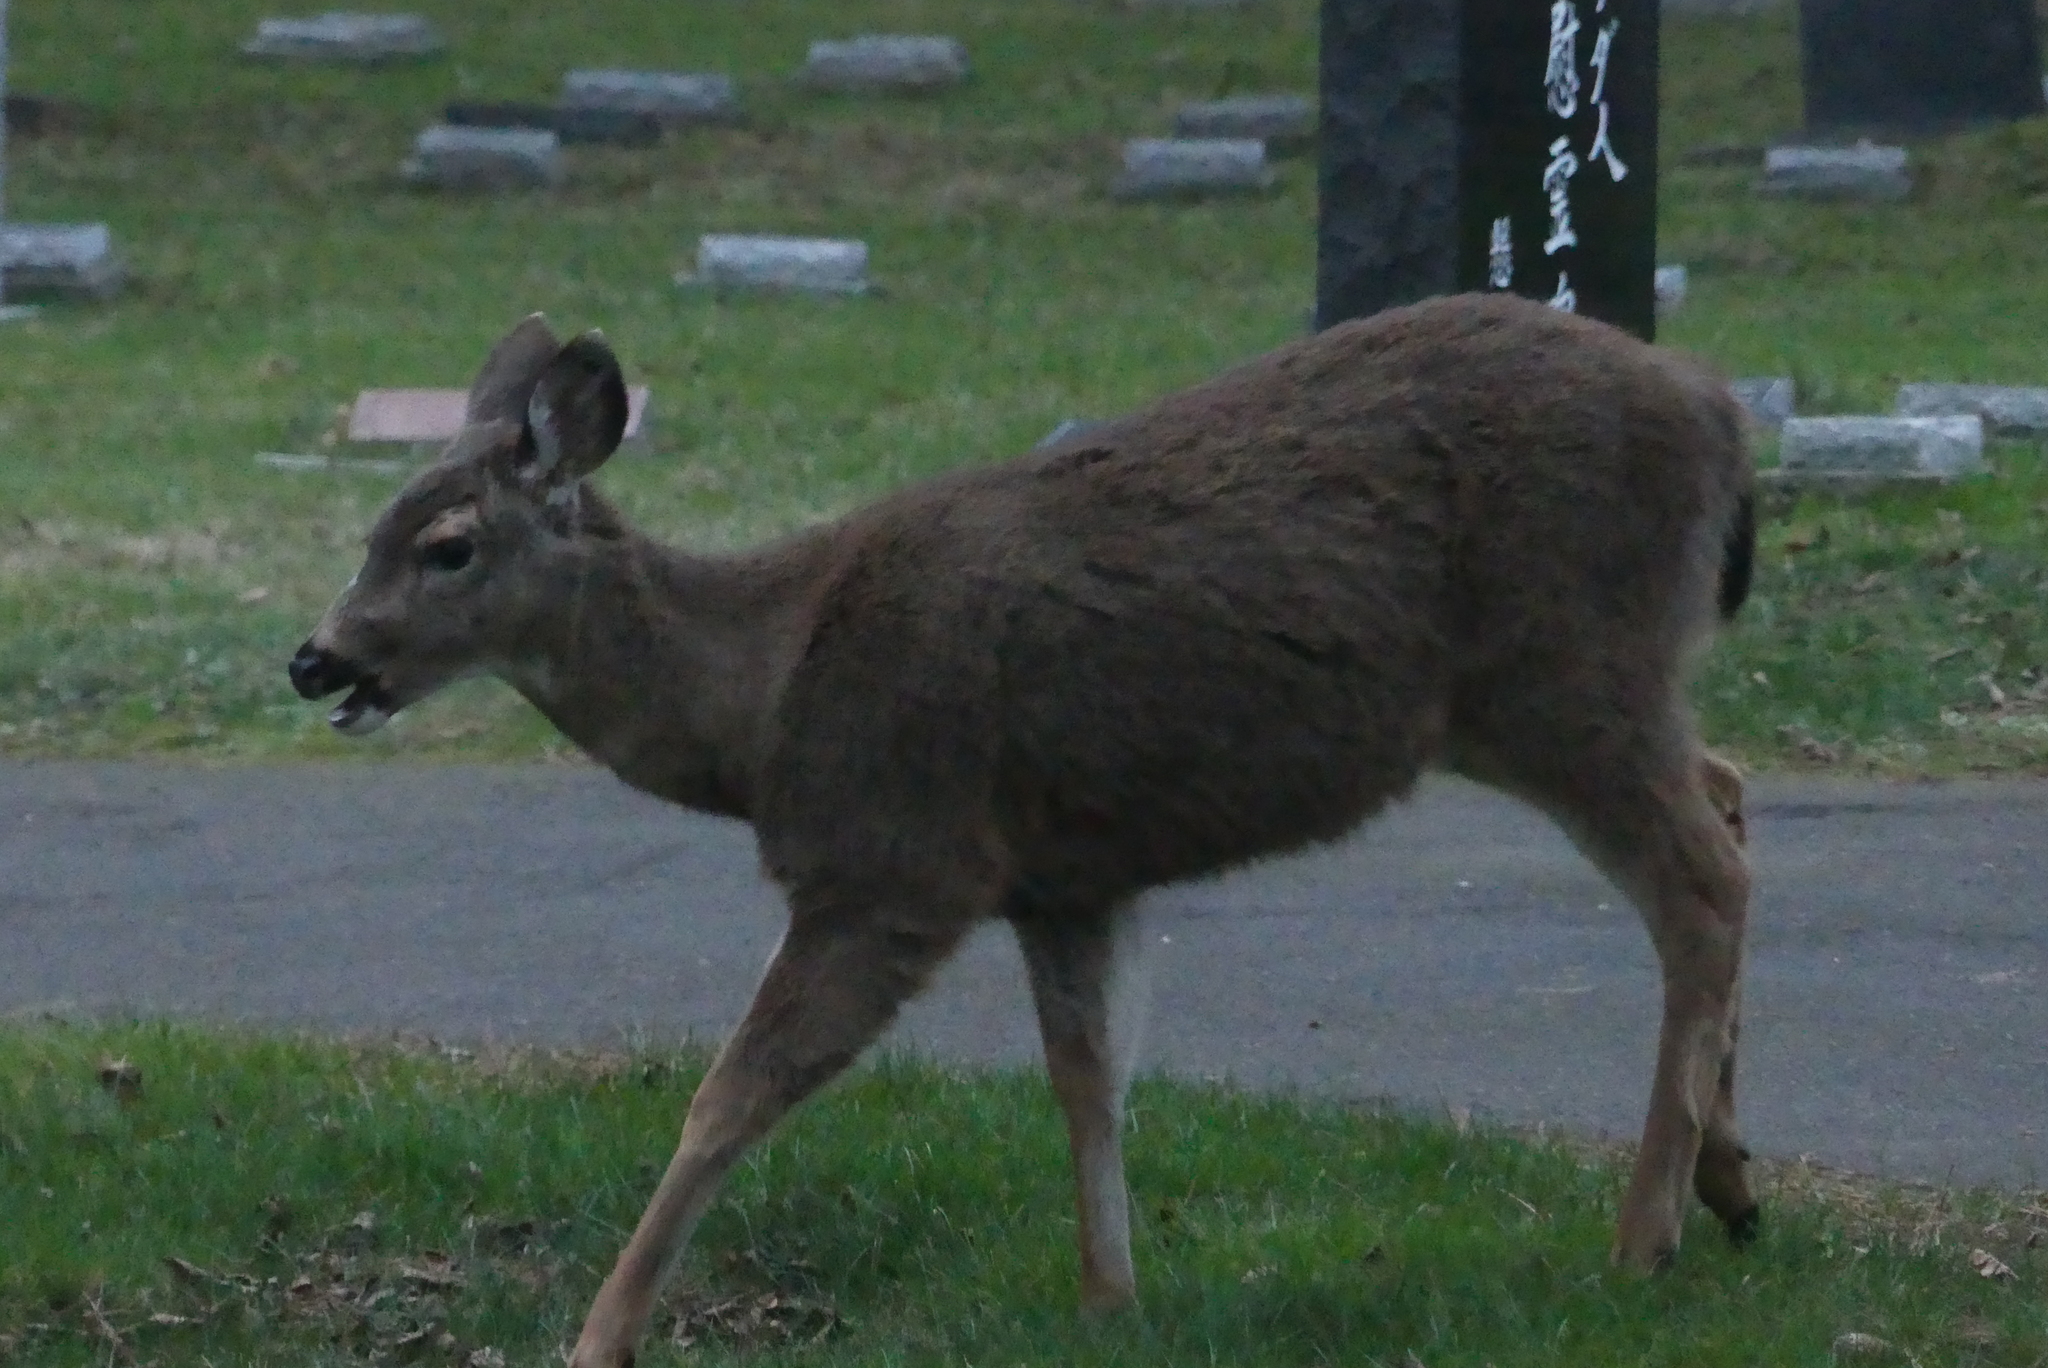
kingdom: Animalia
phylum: Chordata
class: Mammalia
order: Artiodactyla
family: Cervidae
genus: Odocoileus
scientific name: Odocoileus hemionus
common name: Mule deer
